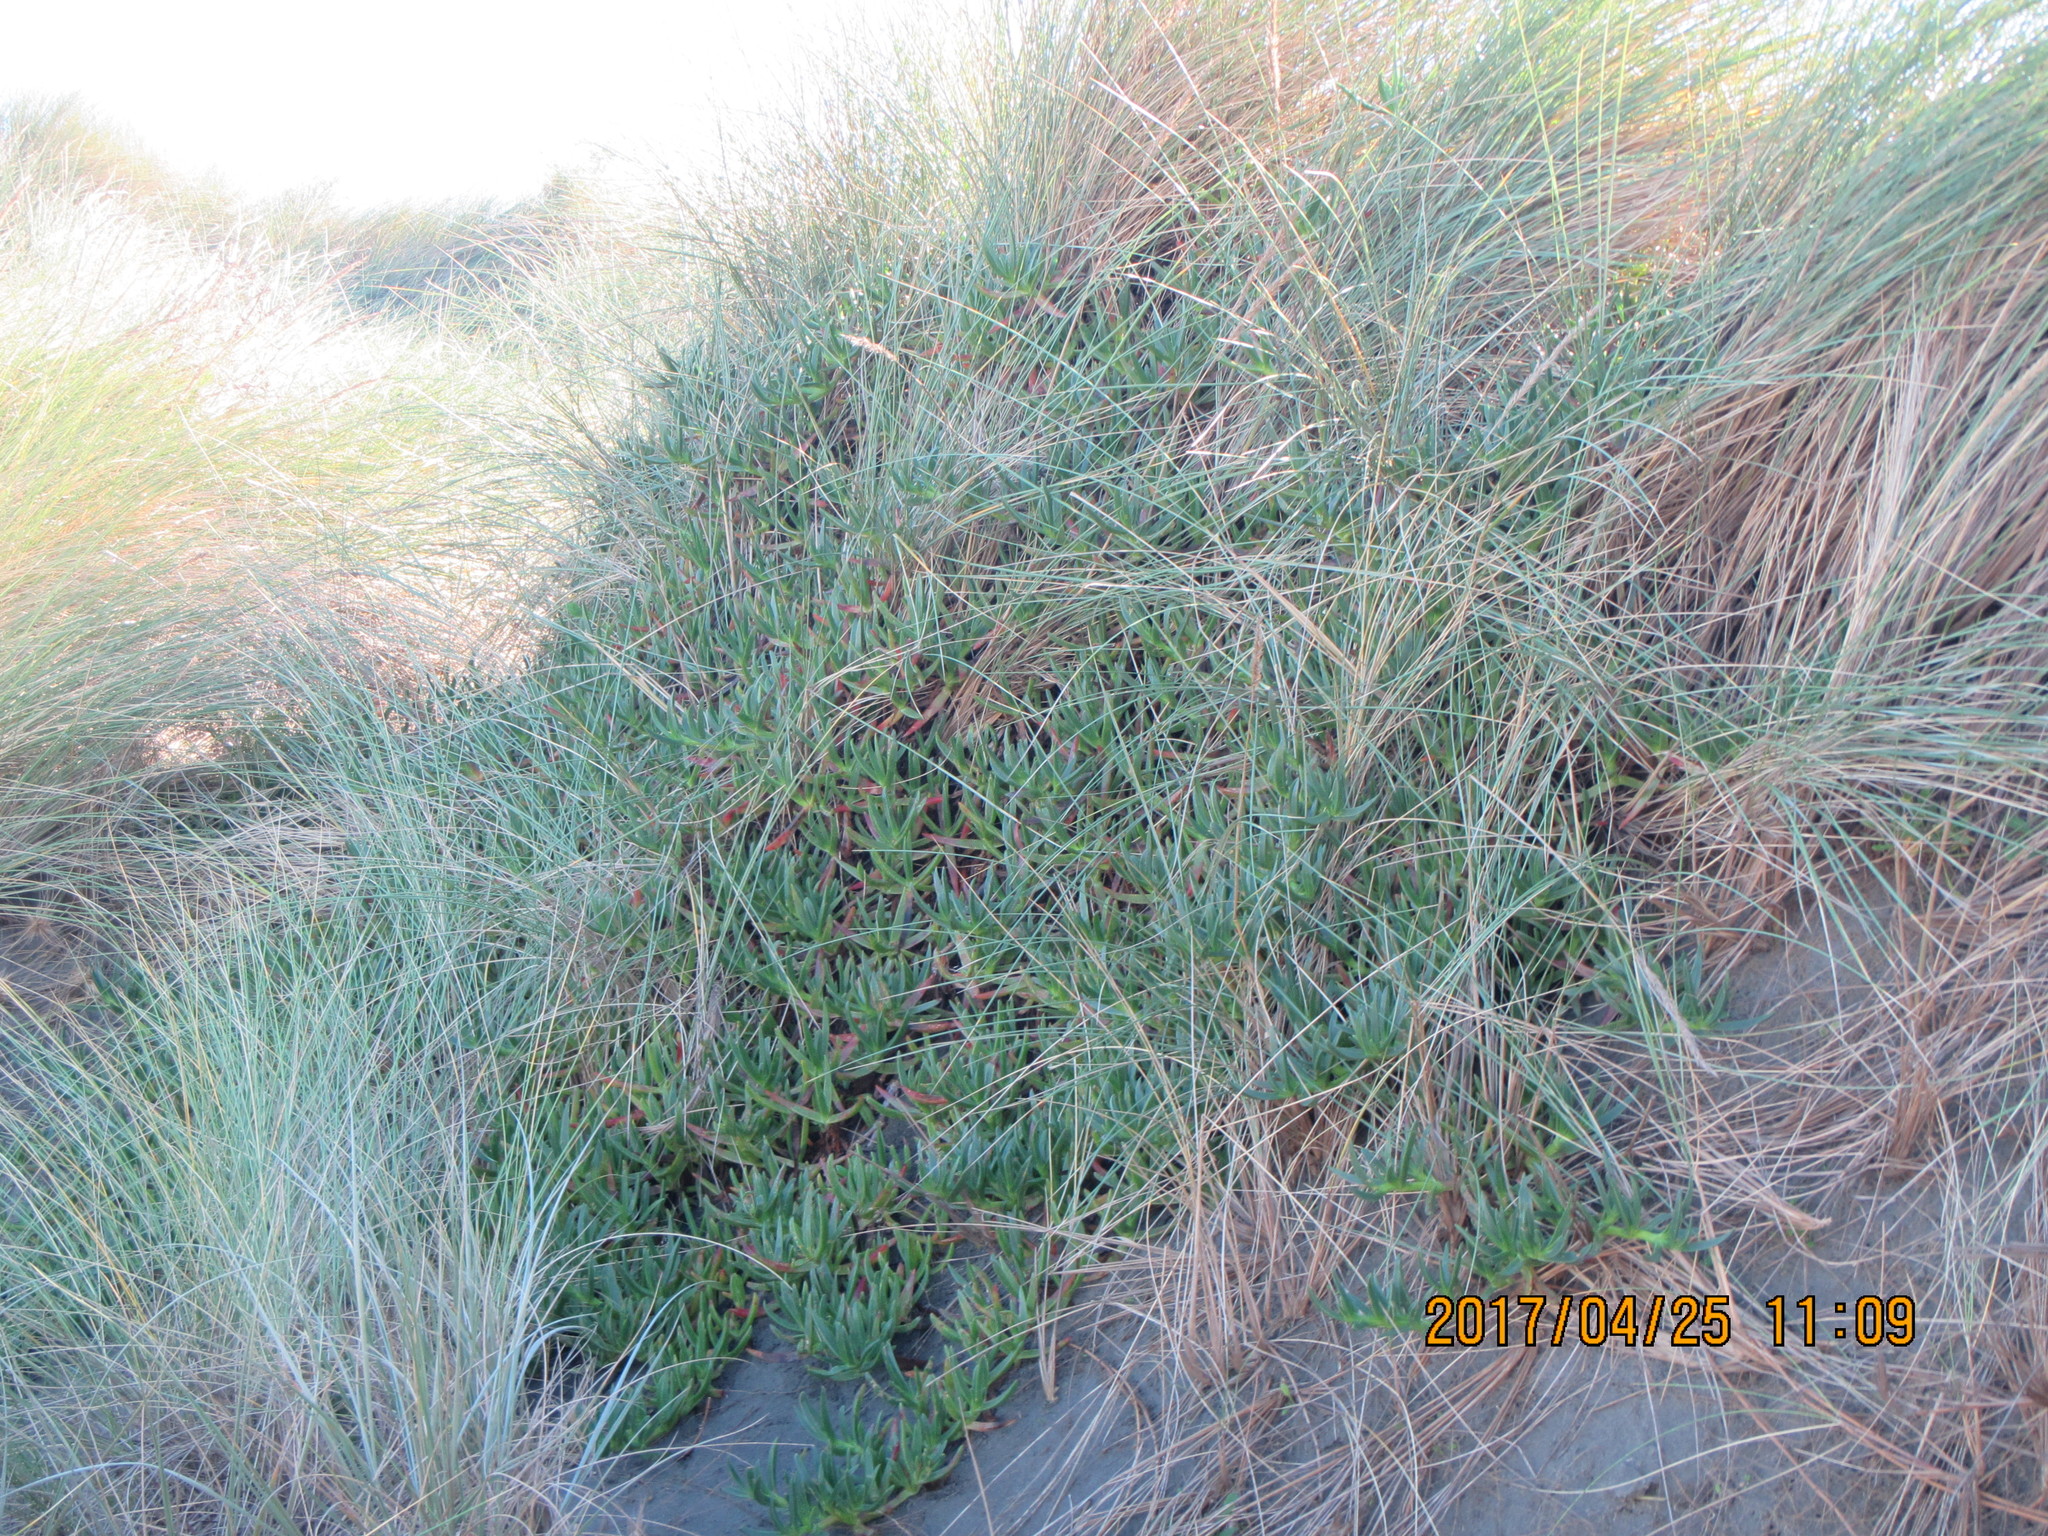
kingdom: Plantae
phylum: Tracheophyta
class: Magnoliopsida
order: Caryophyllales
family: Aizoaceae
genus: Carpobrotus
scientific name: Carpobrotus edulis
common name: Hottentot-fig
